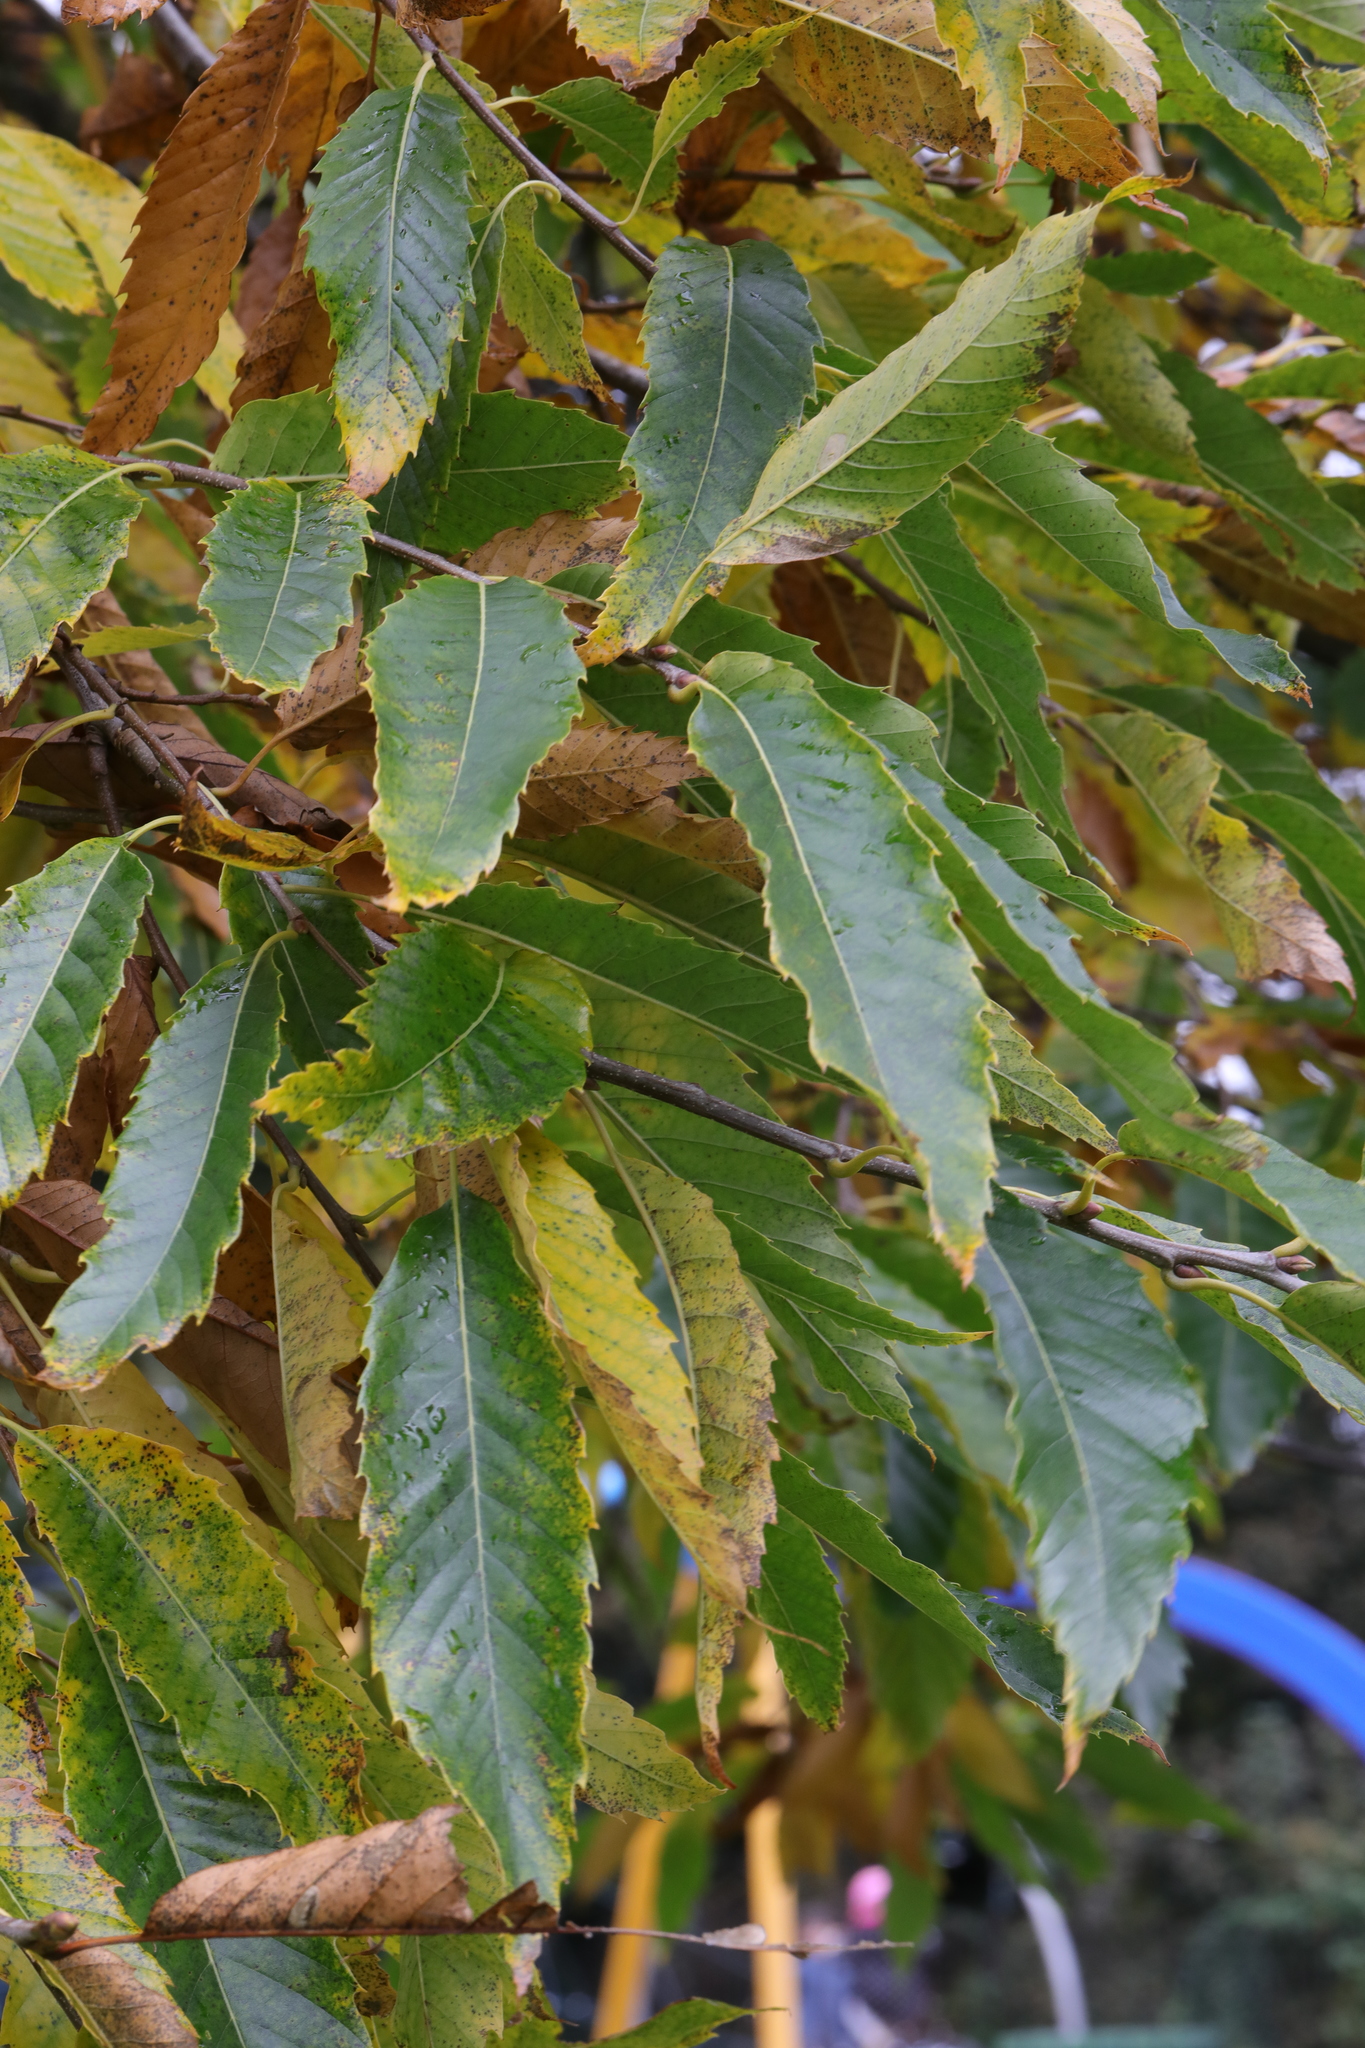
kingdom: Plantae
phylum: Tracheophyta
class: Magnoliopsida
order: Fagales
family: Fagaceae
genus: Castanea
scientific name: Castanea sativa
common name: Sweet chestnut
